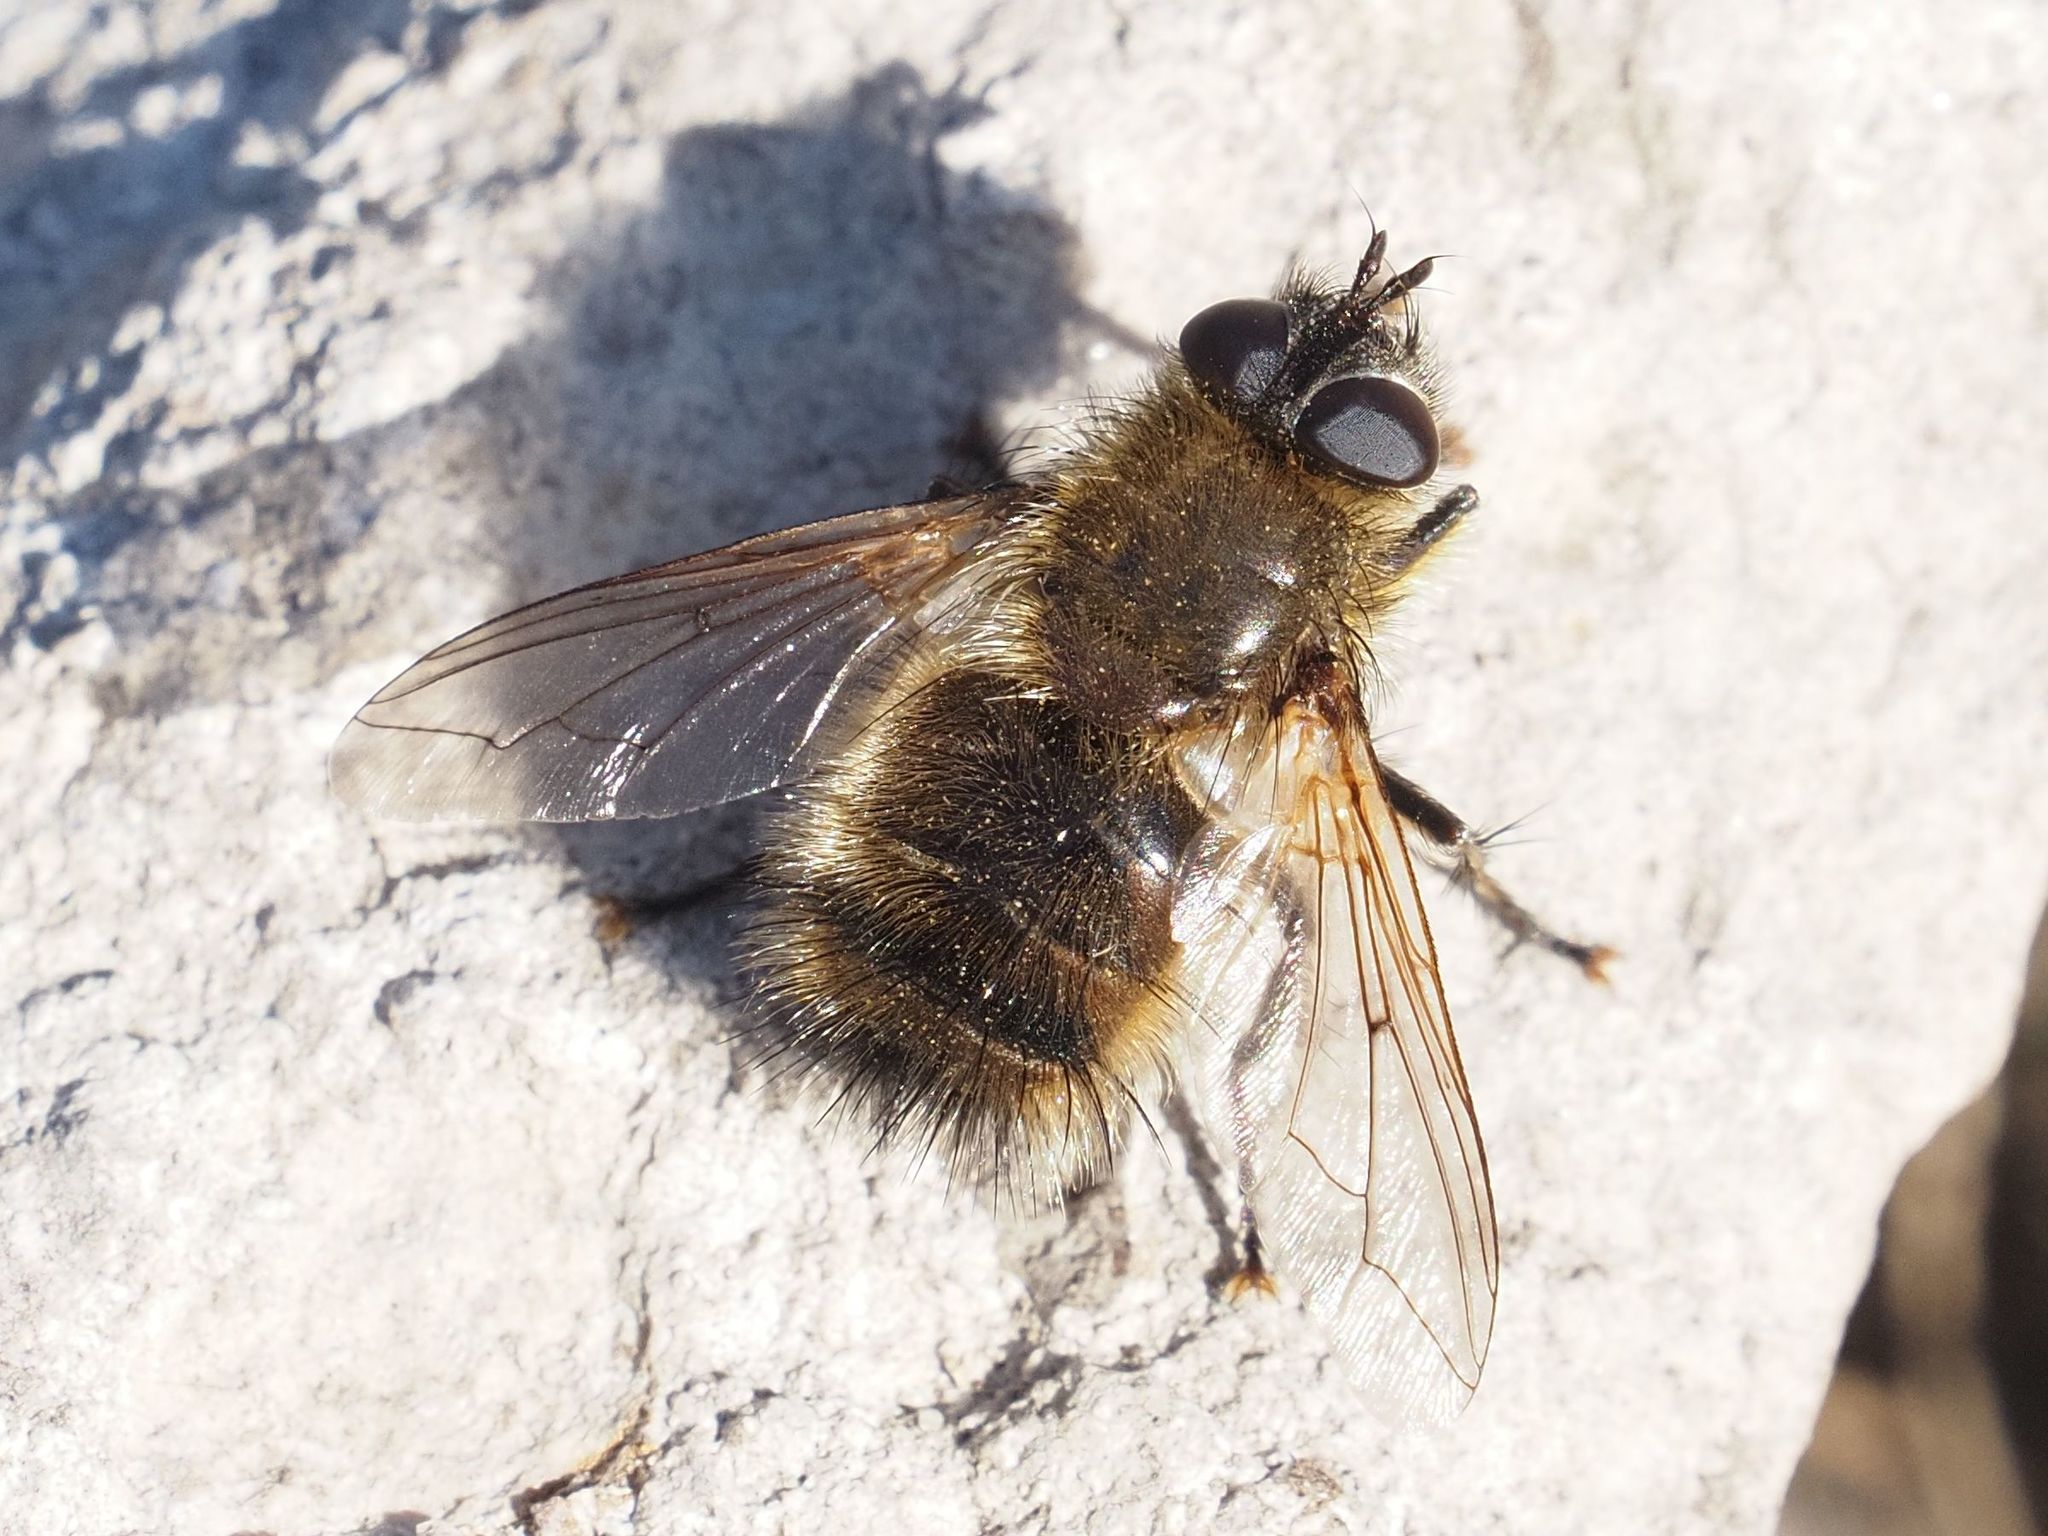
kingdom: Animalia
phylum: Arthropoda
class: Insecta
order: Diptera
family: Tachinidae
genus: Tachina
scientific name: Tachina ursina
